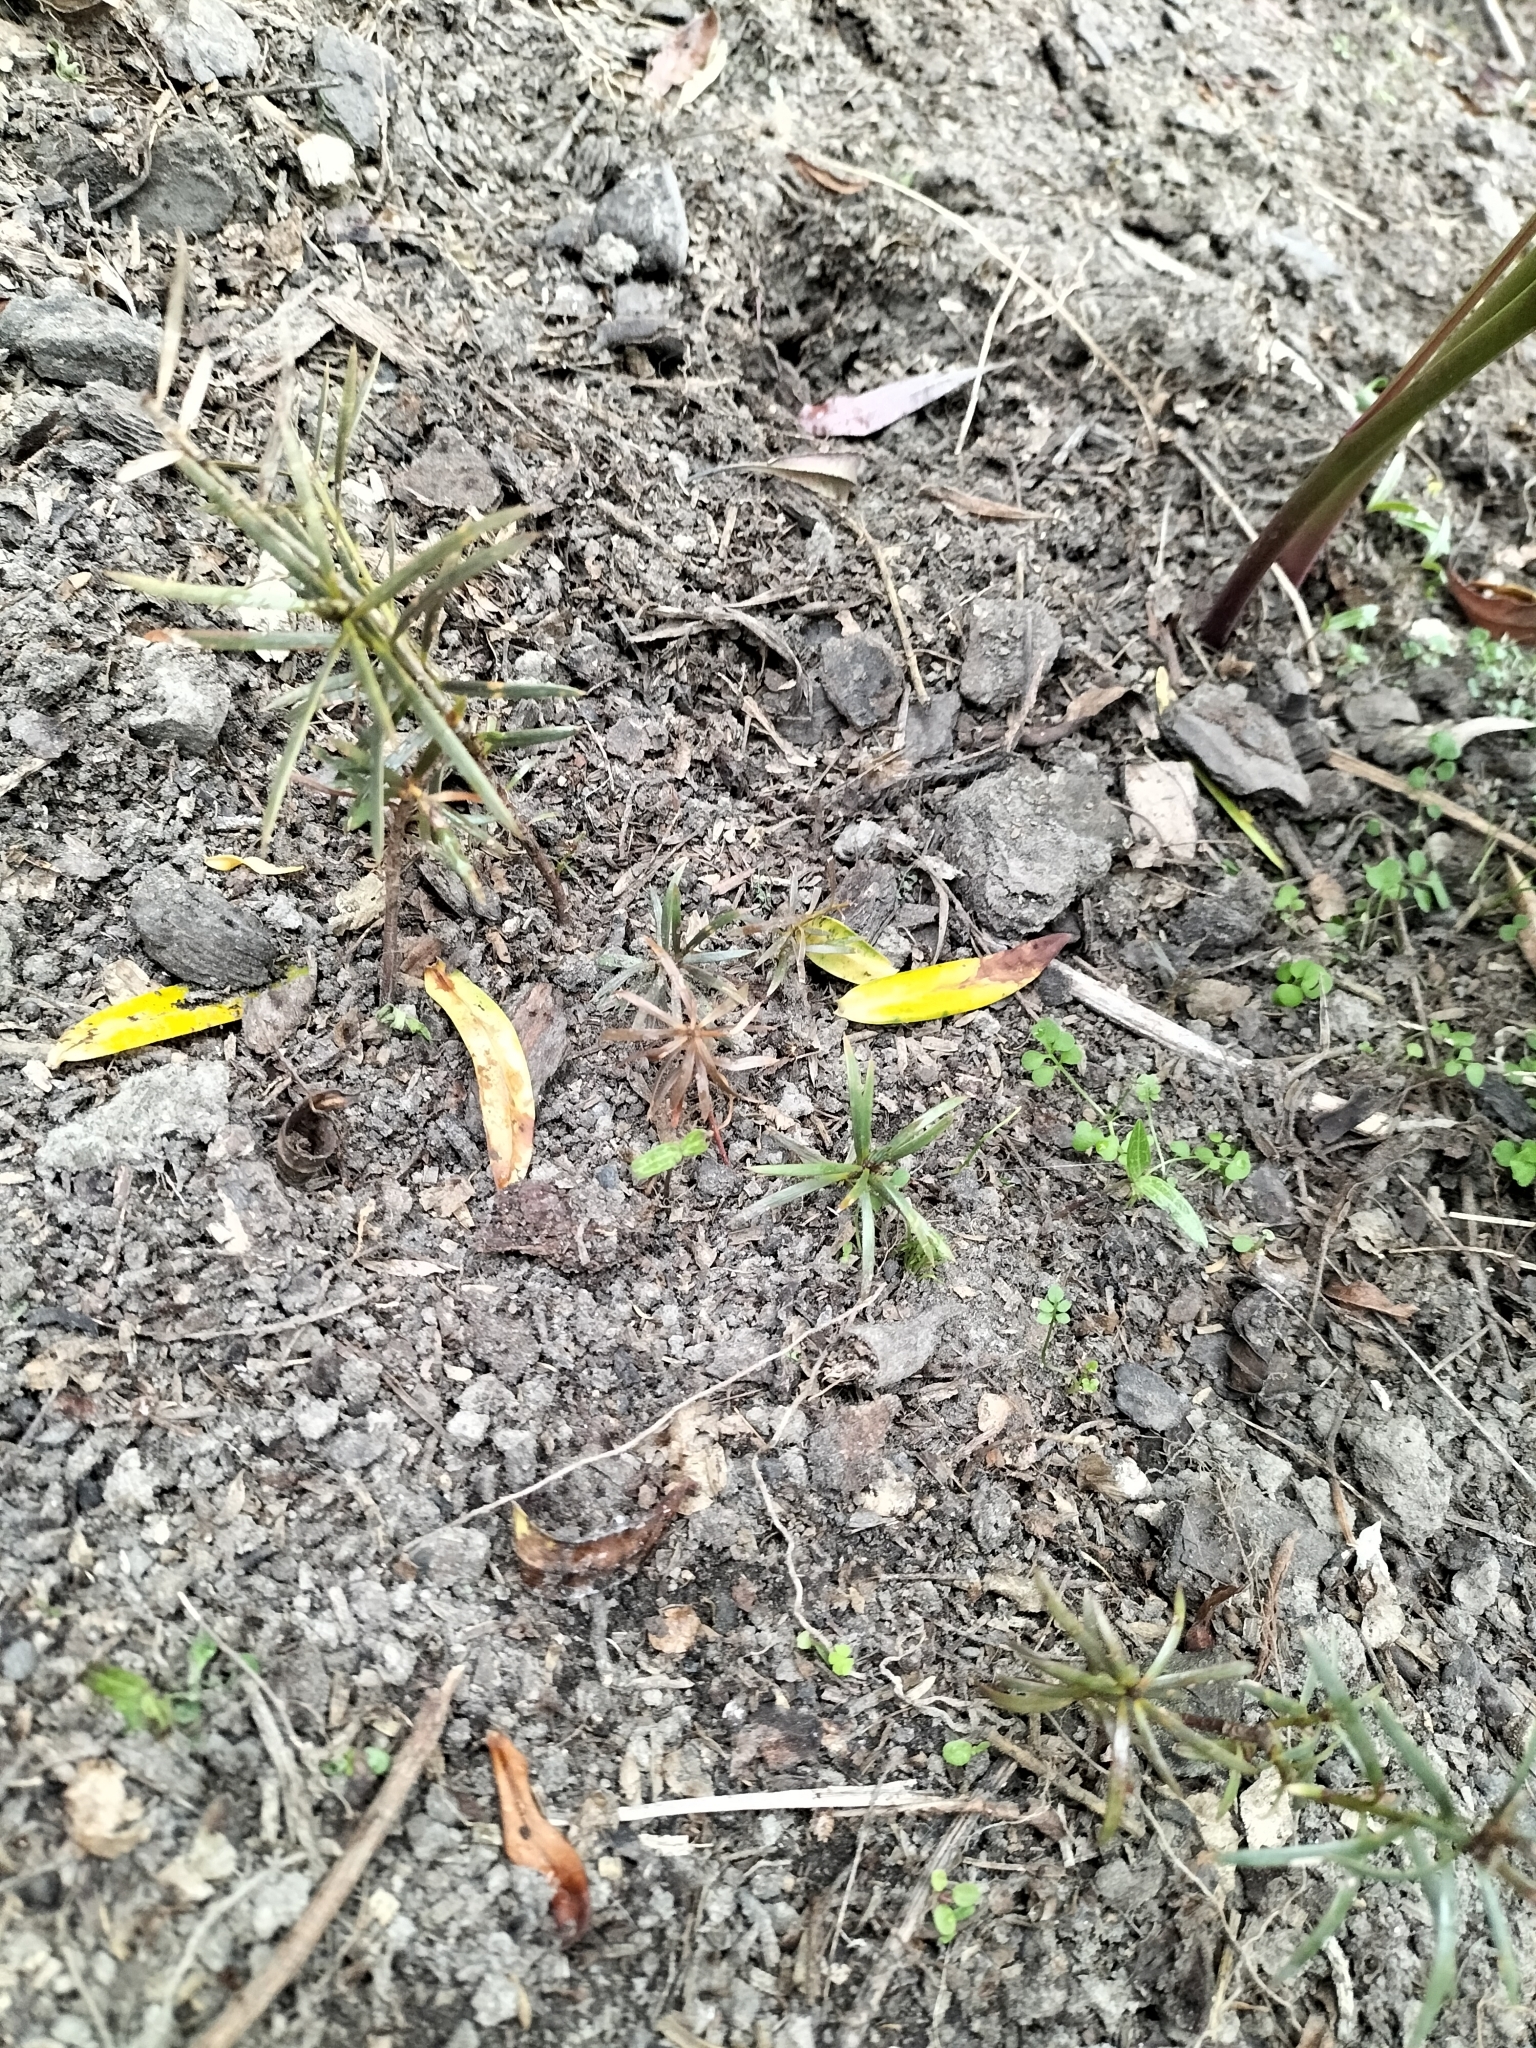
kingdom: Plantae
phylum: Tracheophyta
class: Pinopsida
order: Pinales
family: Podocarpaceae
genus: Podocarpus
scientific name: Podocarpus totara
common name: Totara
